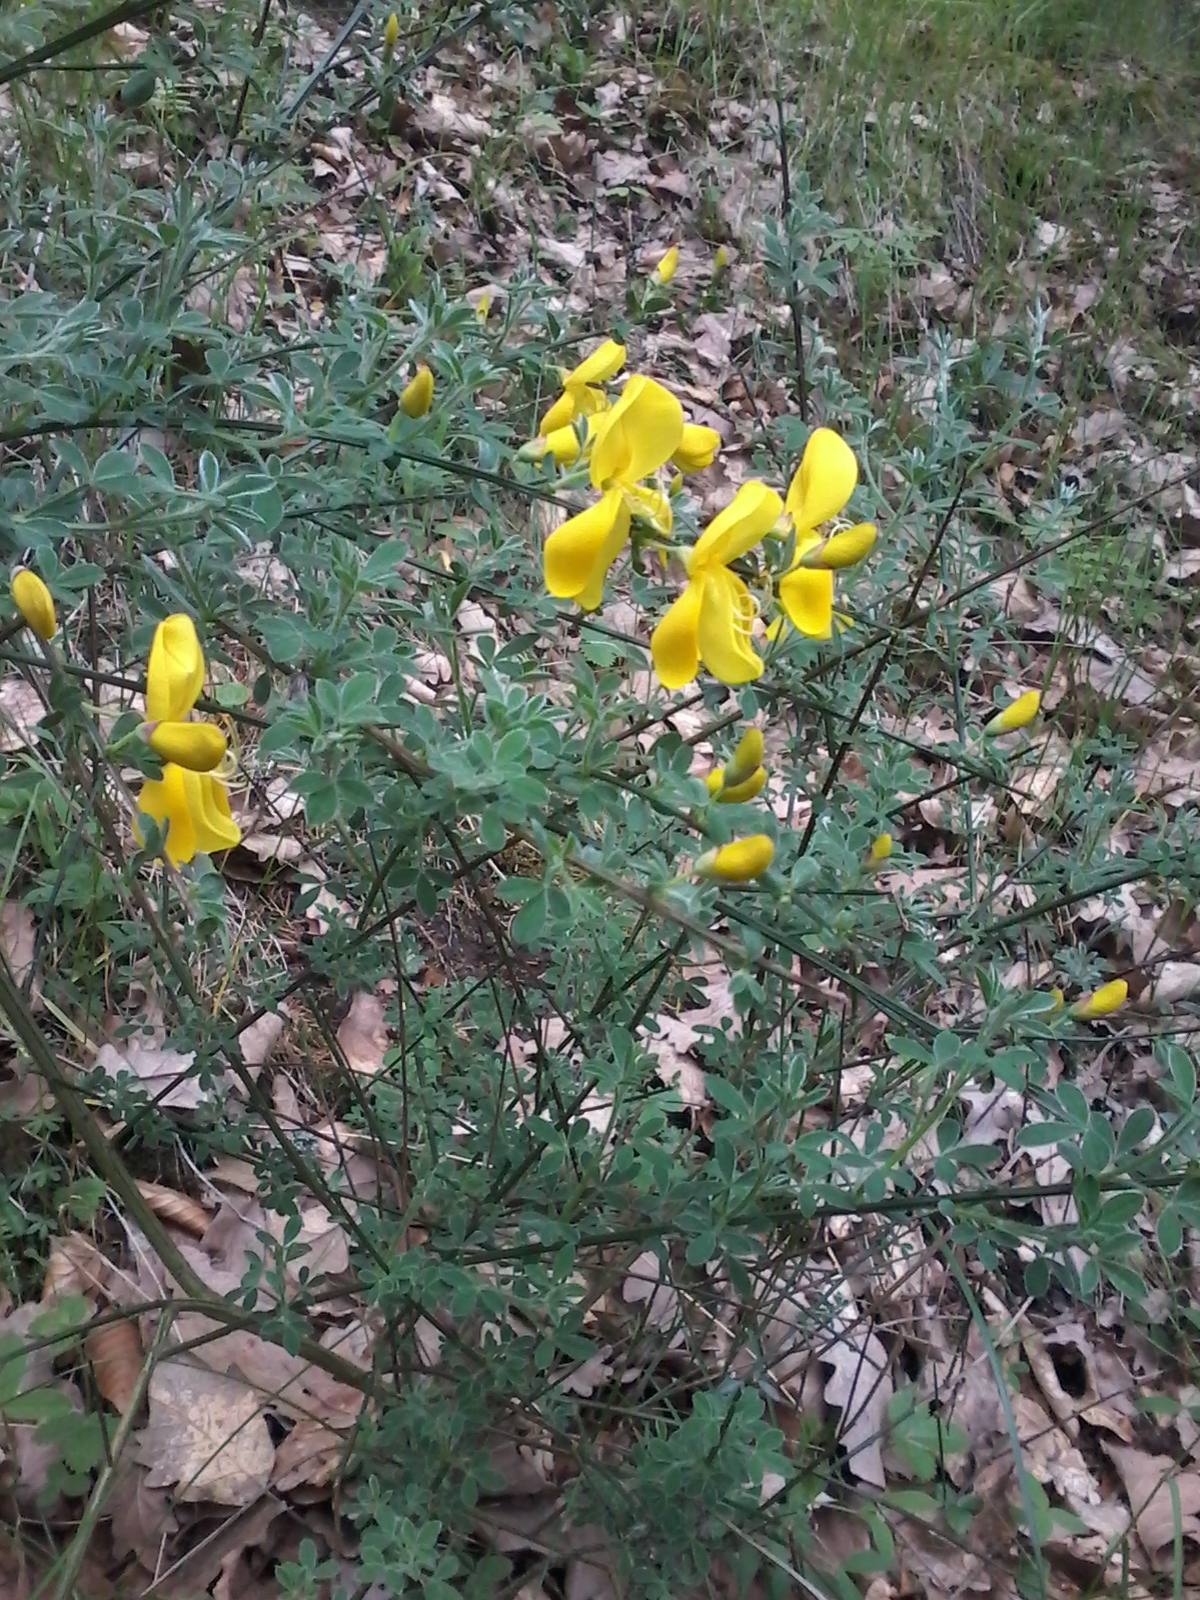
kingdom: Plantae
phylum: Tracheophyta
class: Magnoliopsida
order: Fabales
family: Fabaceae
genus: Cytisus
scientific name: Cytisus scoparius
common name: Scotch broom
